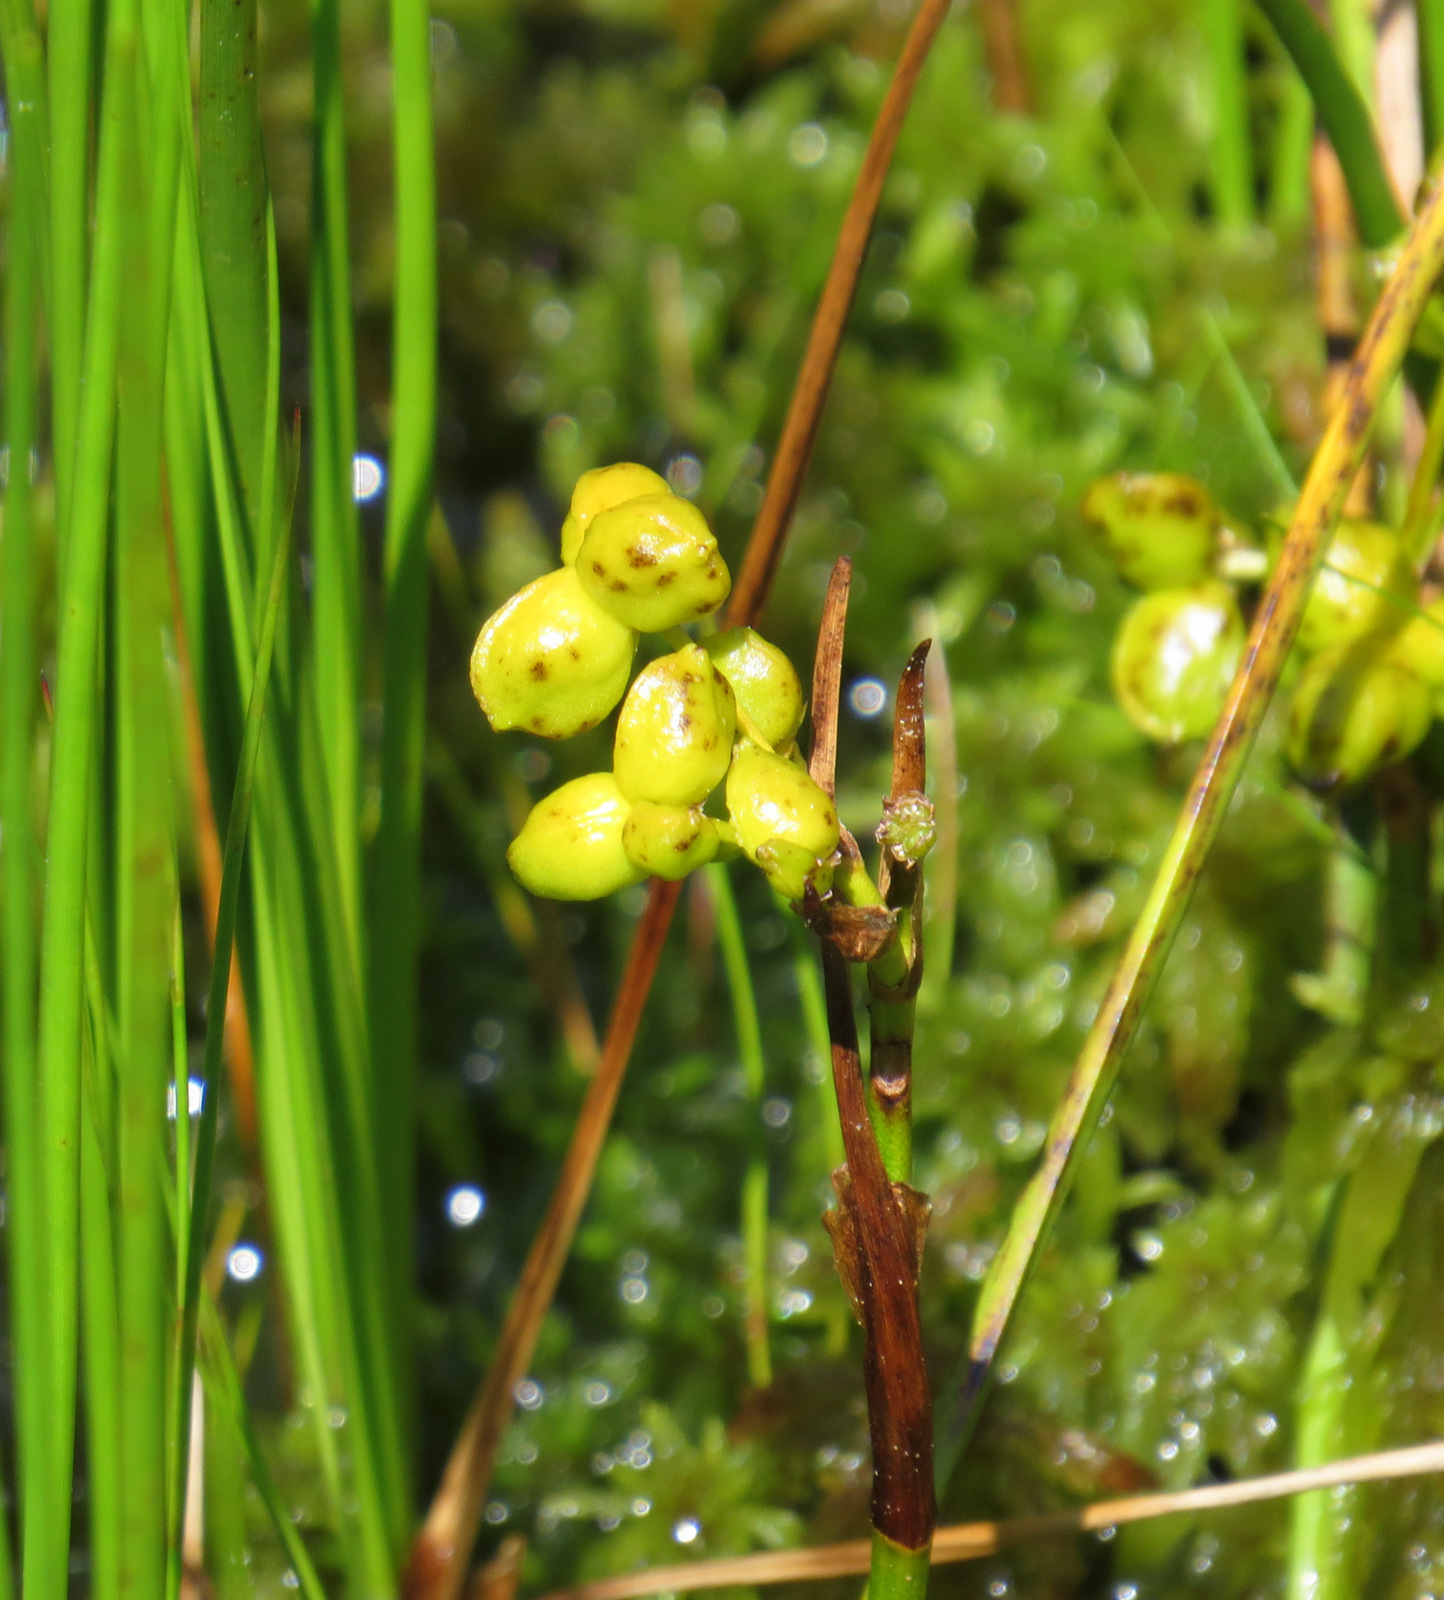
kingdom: Plantae
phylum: Tracheophyta
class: Liliopsida
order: Alismatales
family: Scheuchzeriaceae
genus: Scheuchzeria
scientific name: Scheuchzeria palustris
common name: Rannoch-rush
